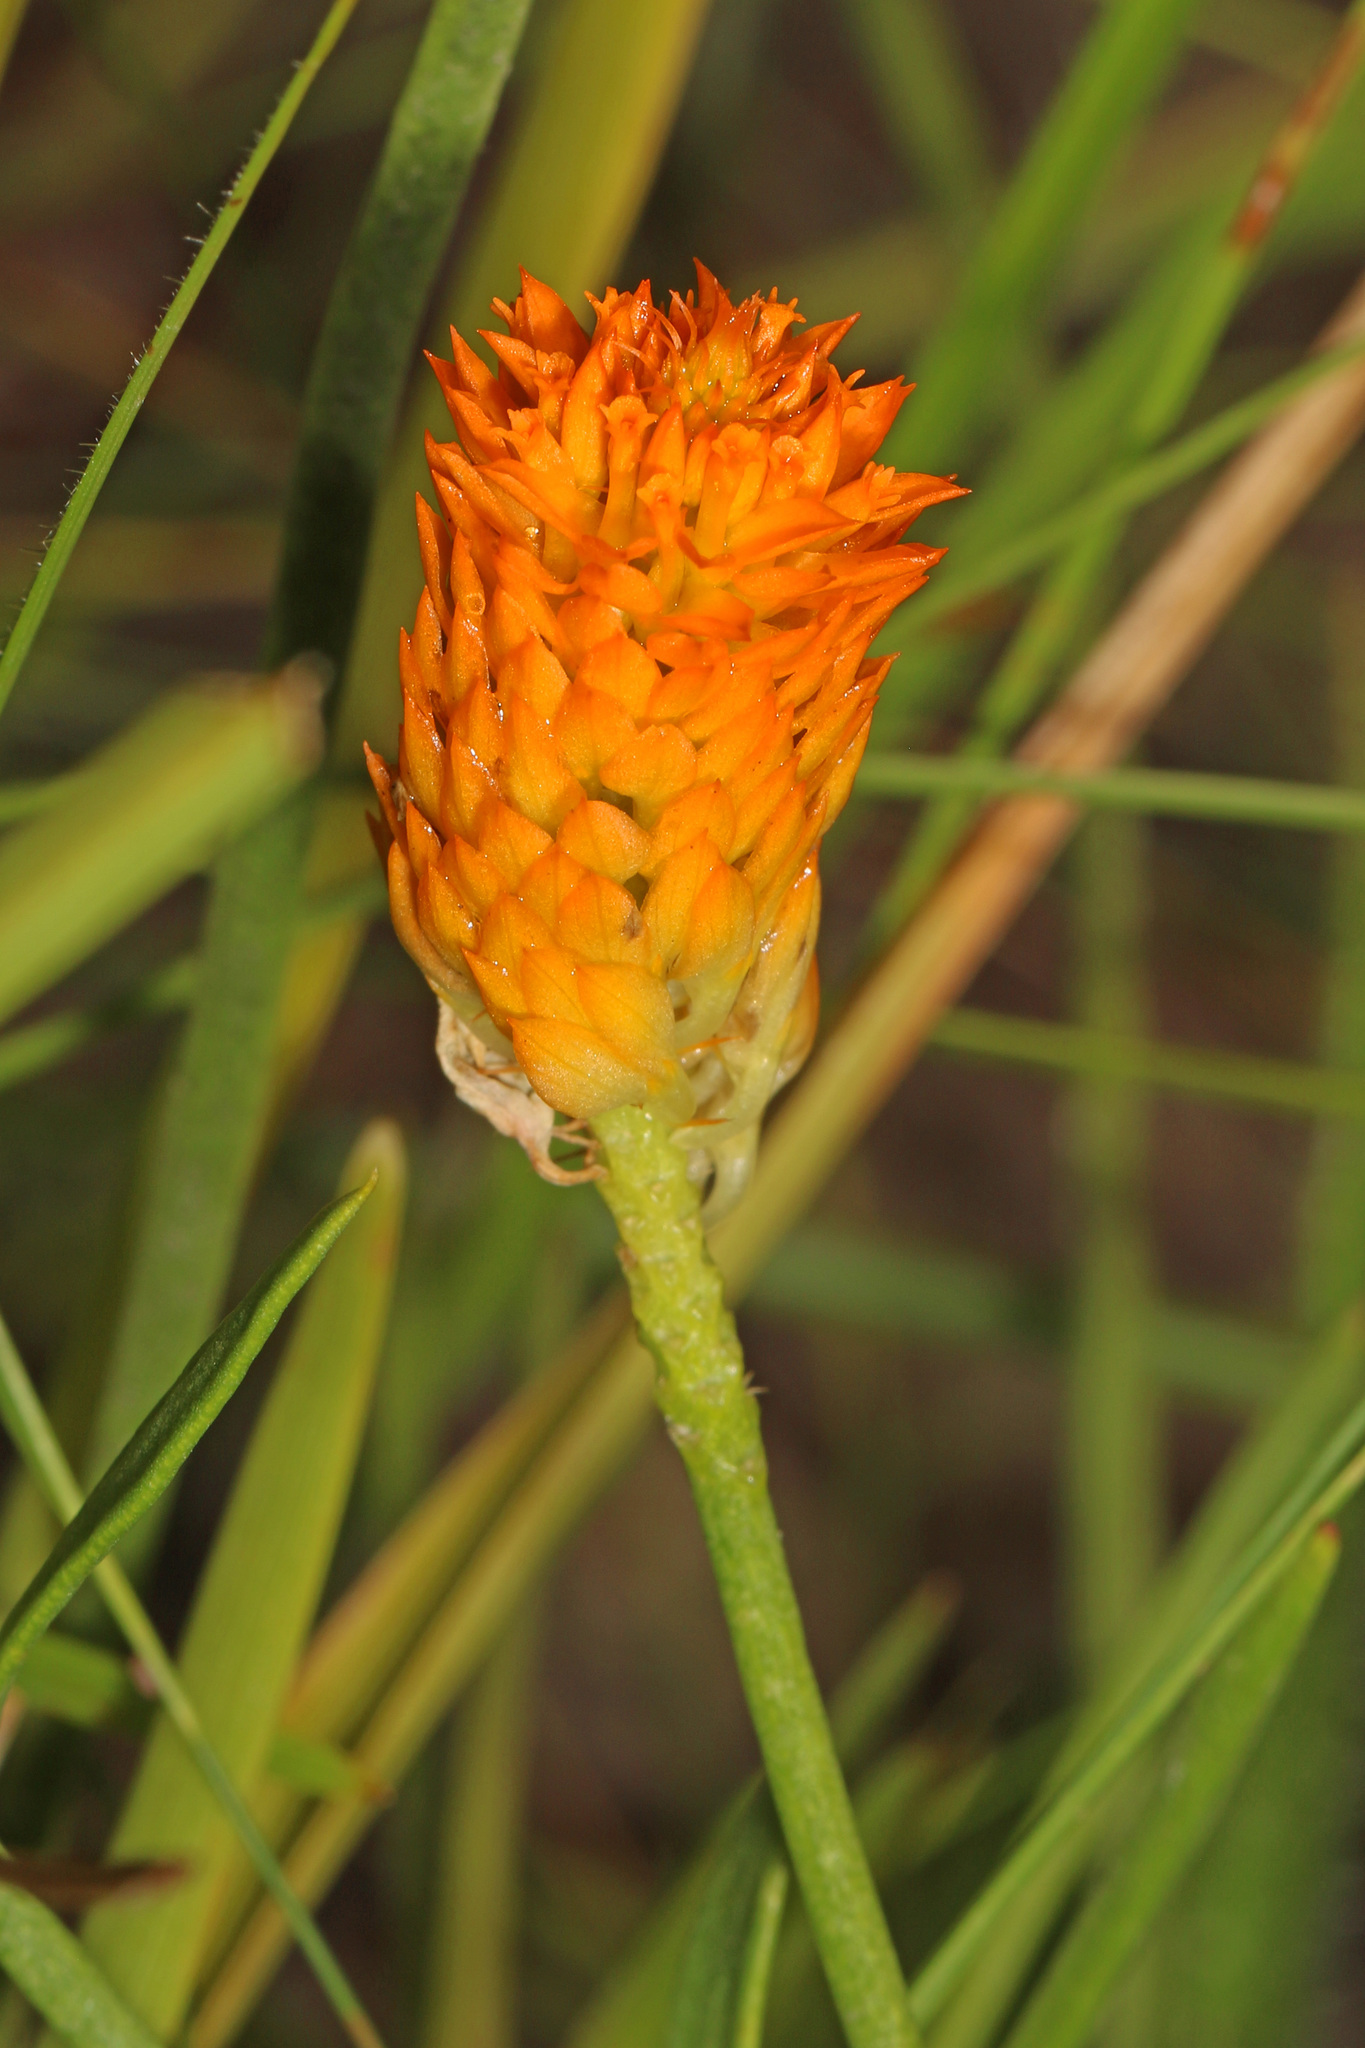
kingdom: Plantae
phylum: Tracheophyta
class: Magnoliopsida
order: Fabales
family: Polygalaceae
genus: Polygala
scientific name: Polygala lutea
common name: Orange milkwort
